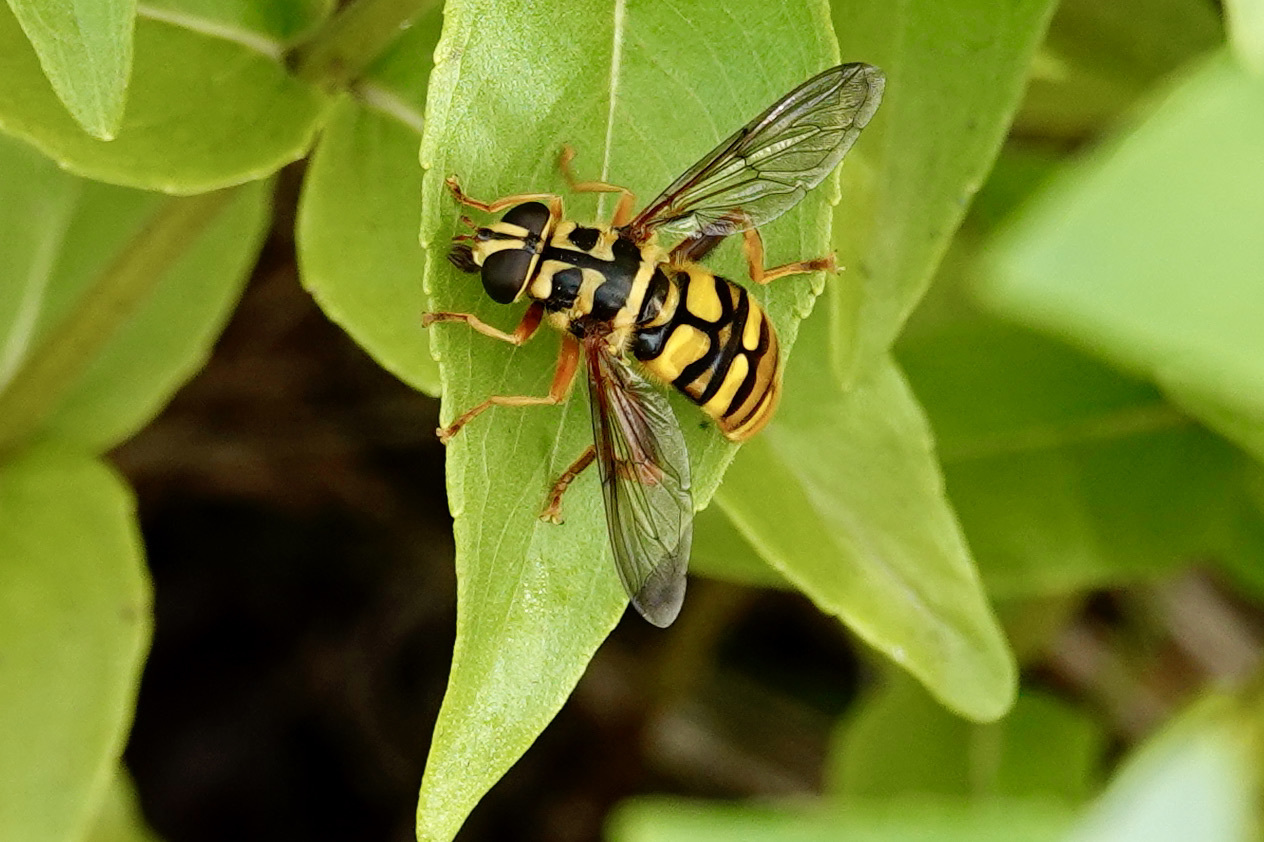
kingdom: Animalia
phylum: Arthropoda
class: Insecta
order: Diptera
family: Syrphidae
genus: Milesia
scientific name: Milesia virginiensis
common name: Virginia giant
